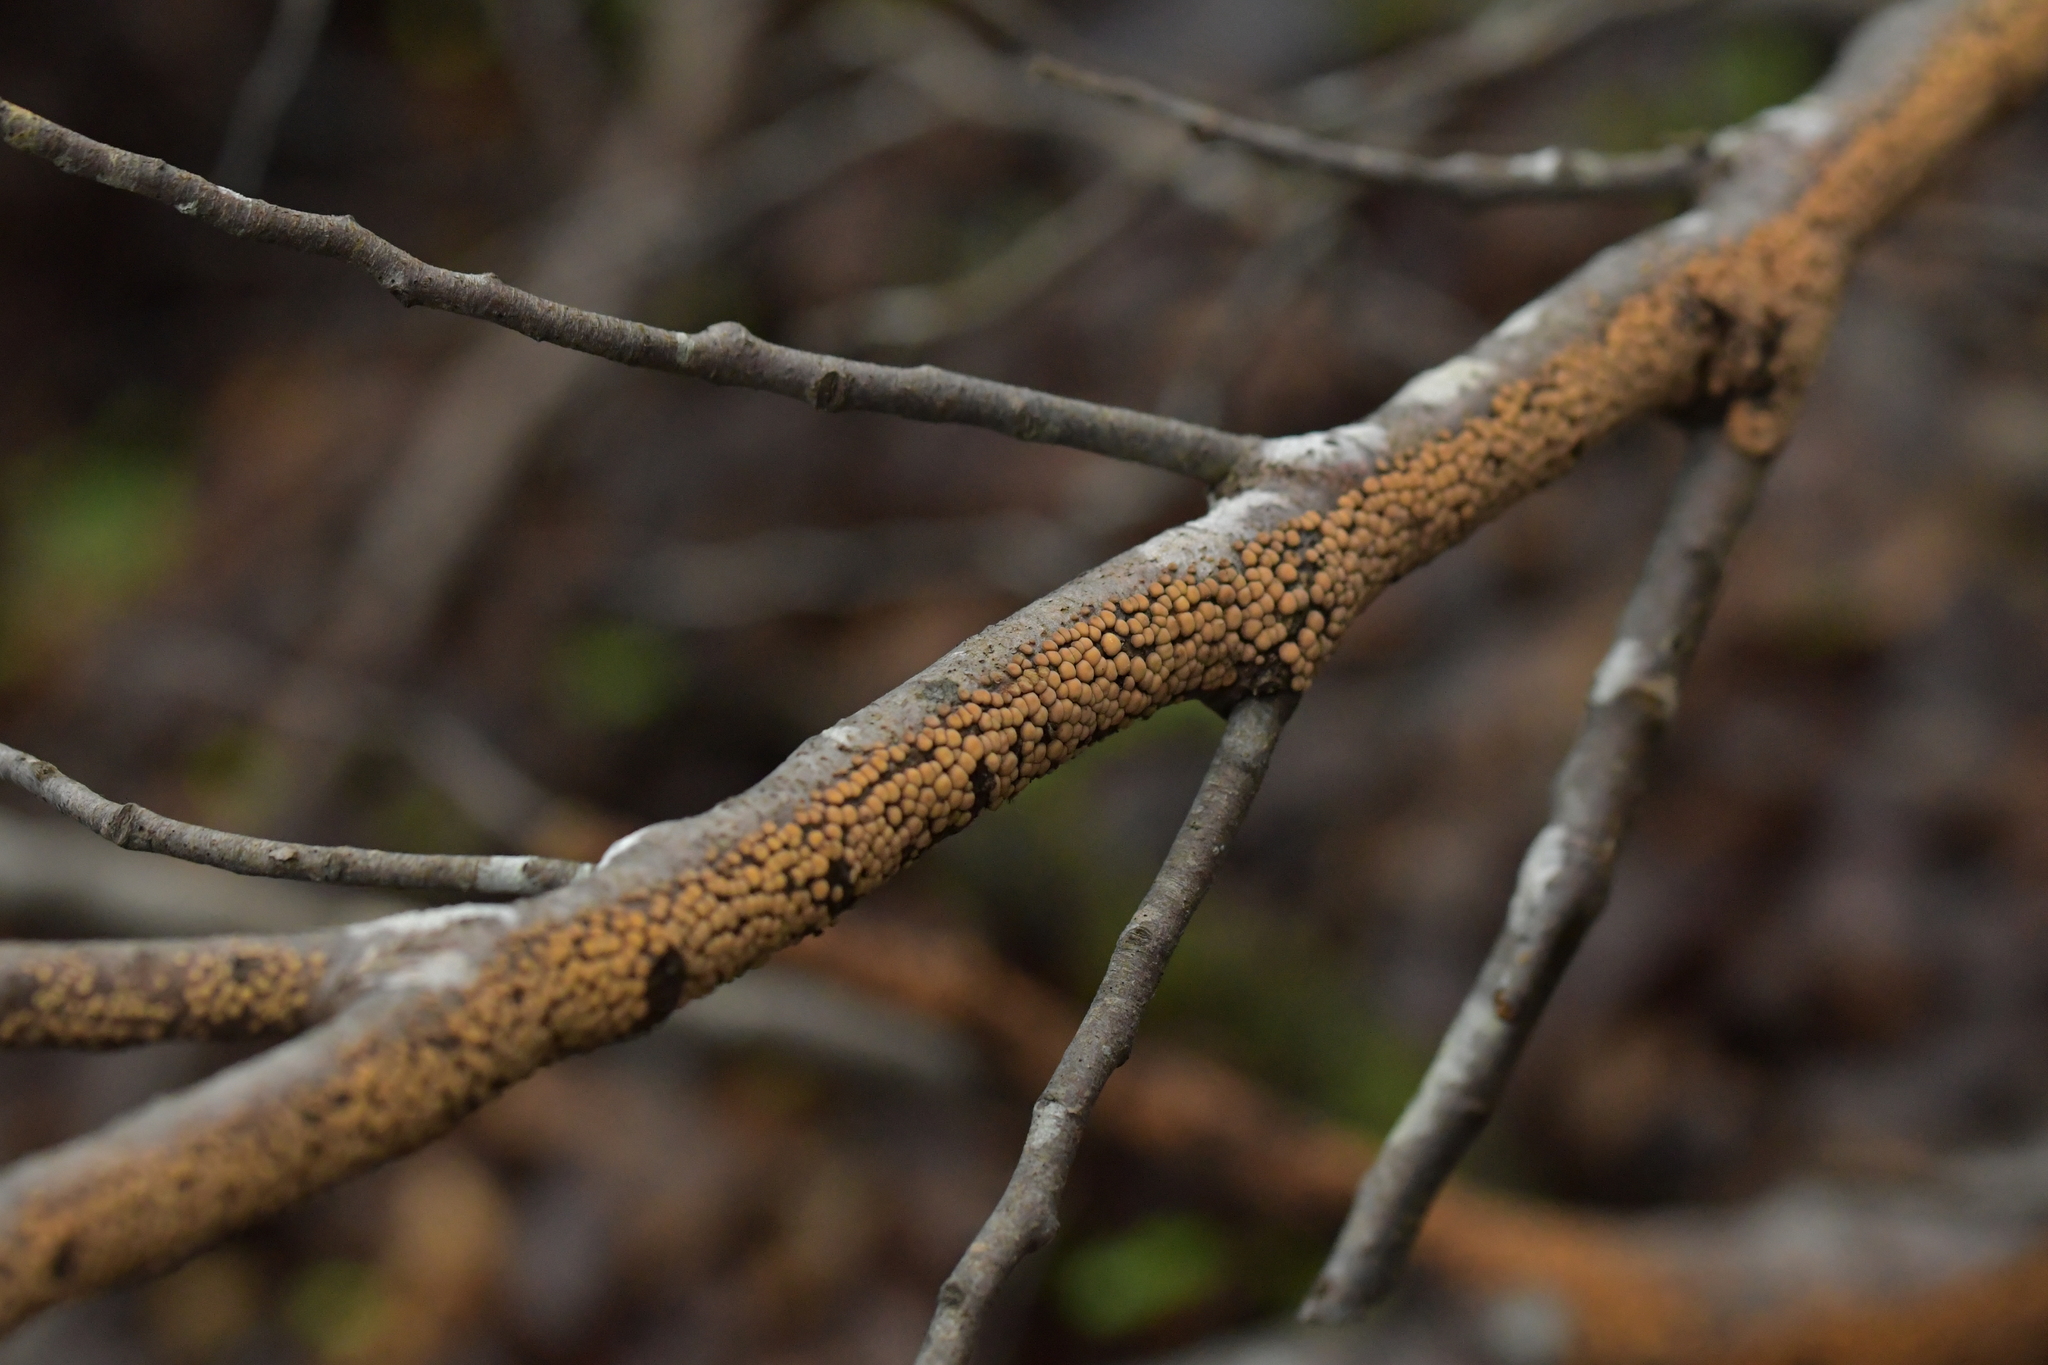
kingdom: Fungi
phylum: Basidiomycota
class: Agaricomycetes
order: Russulales
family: Stereaceae
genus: Aleurodiscus
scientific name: Aleurodiscus berggrenii
